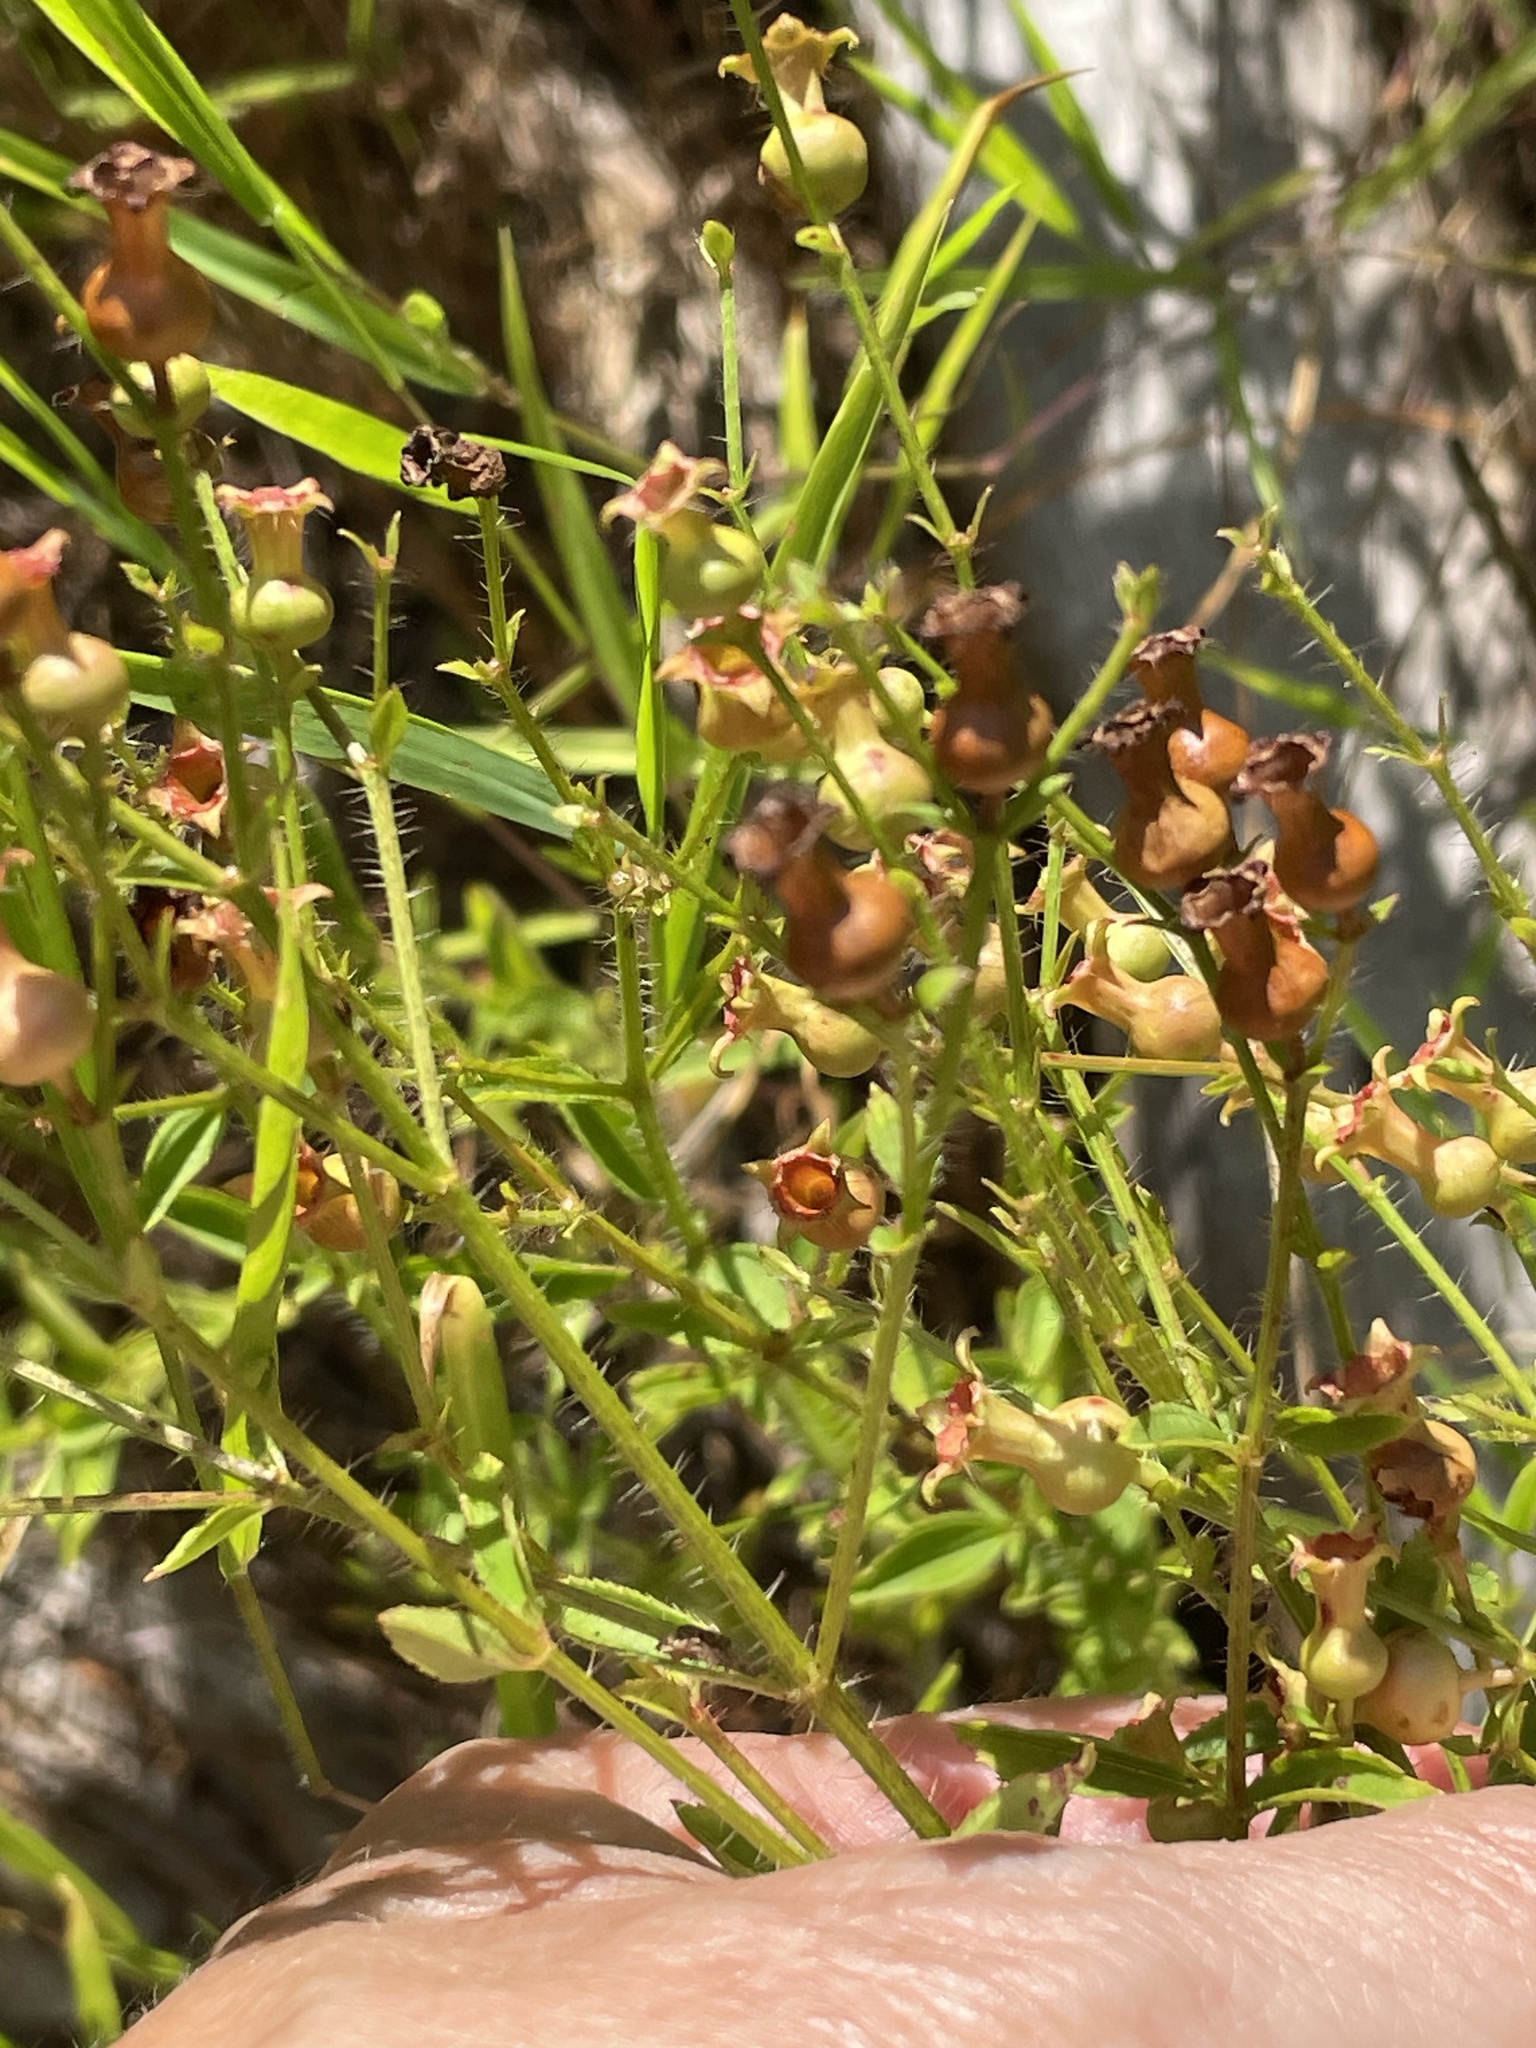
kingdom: Plantae
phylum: Tracheophyta
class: Magnoliopsida
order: Myrtales
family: Melastomataceae
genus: Rhexia
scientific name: Rhexia mariana
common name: Dull meadow-pitcher
